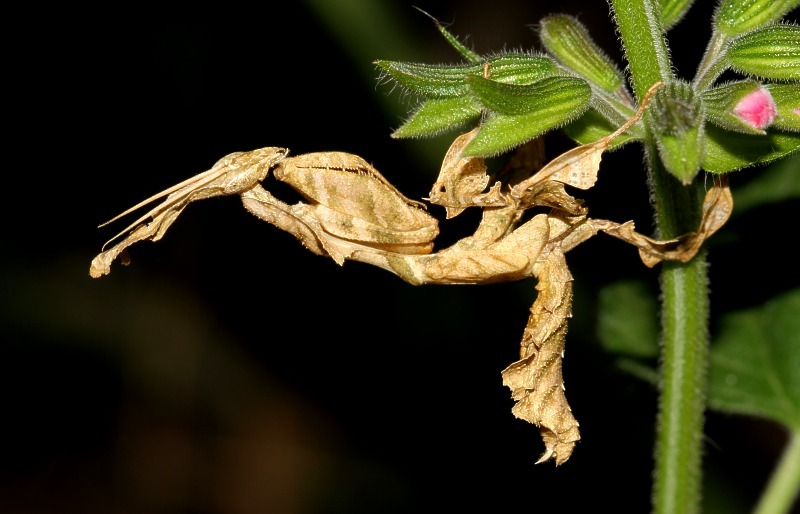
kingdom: Animalia
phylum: Arthropoda
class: Insecta
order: Mantodea
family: Hymenopodidae
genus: Phyllocrania
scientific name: Phyllocrania paradoxa
